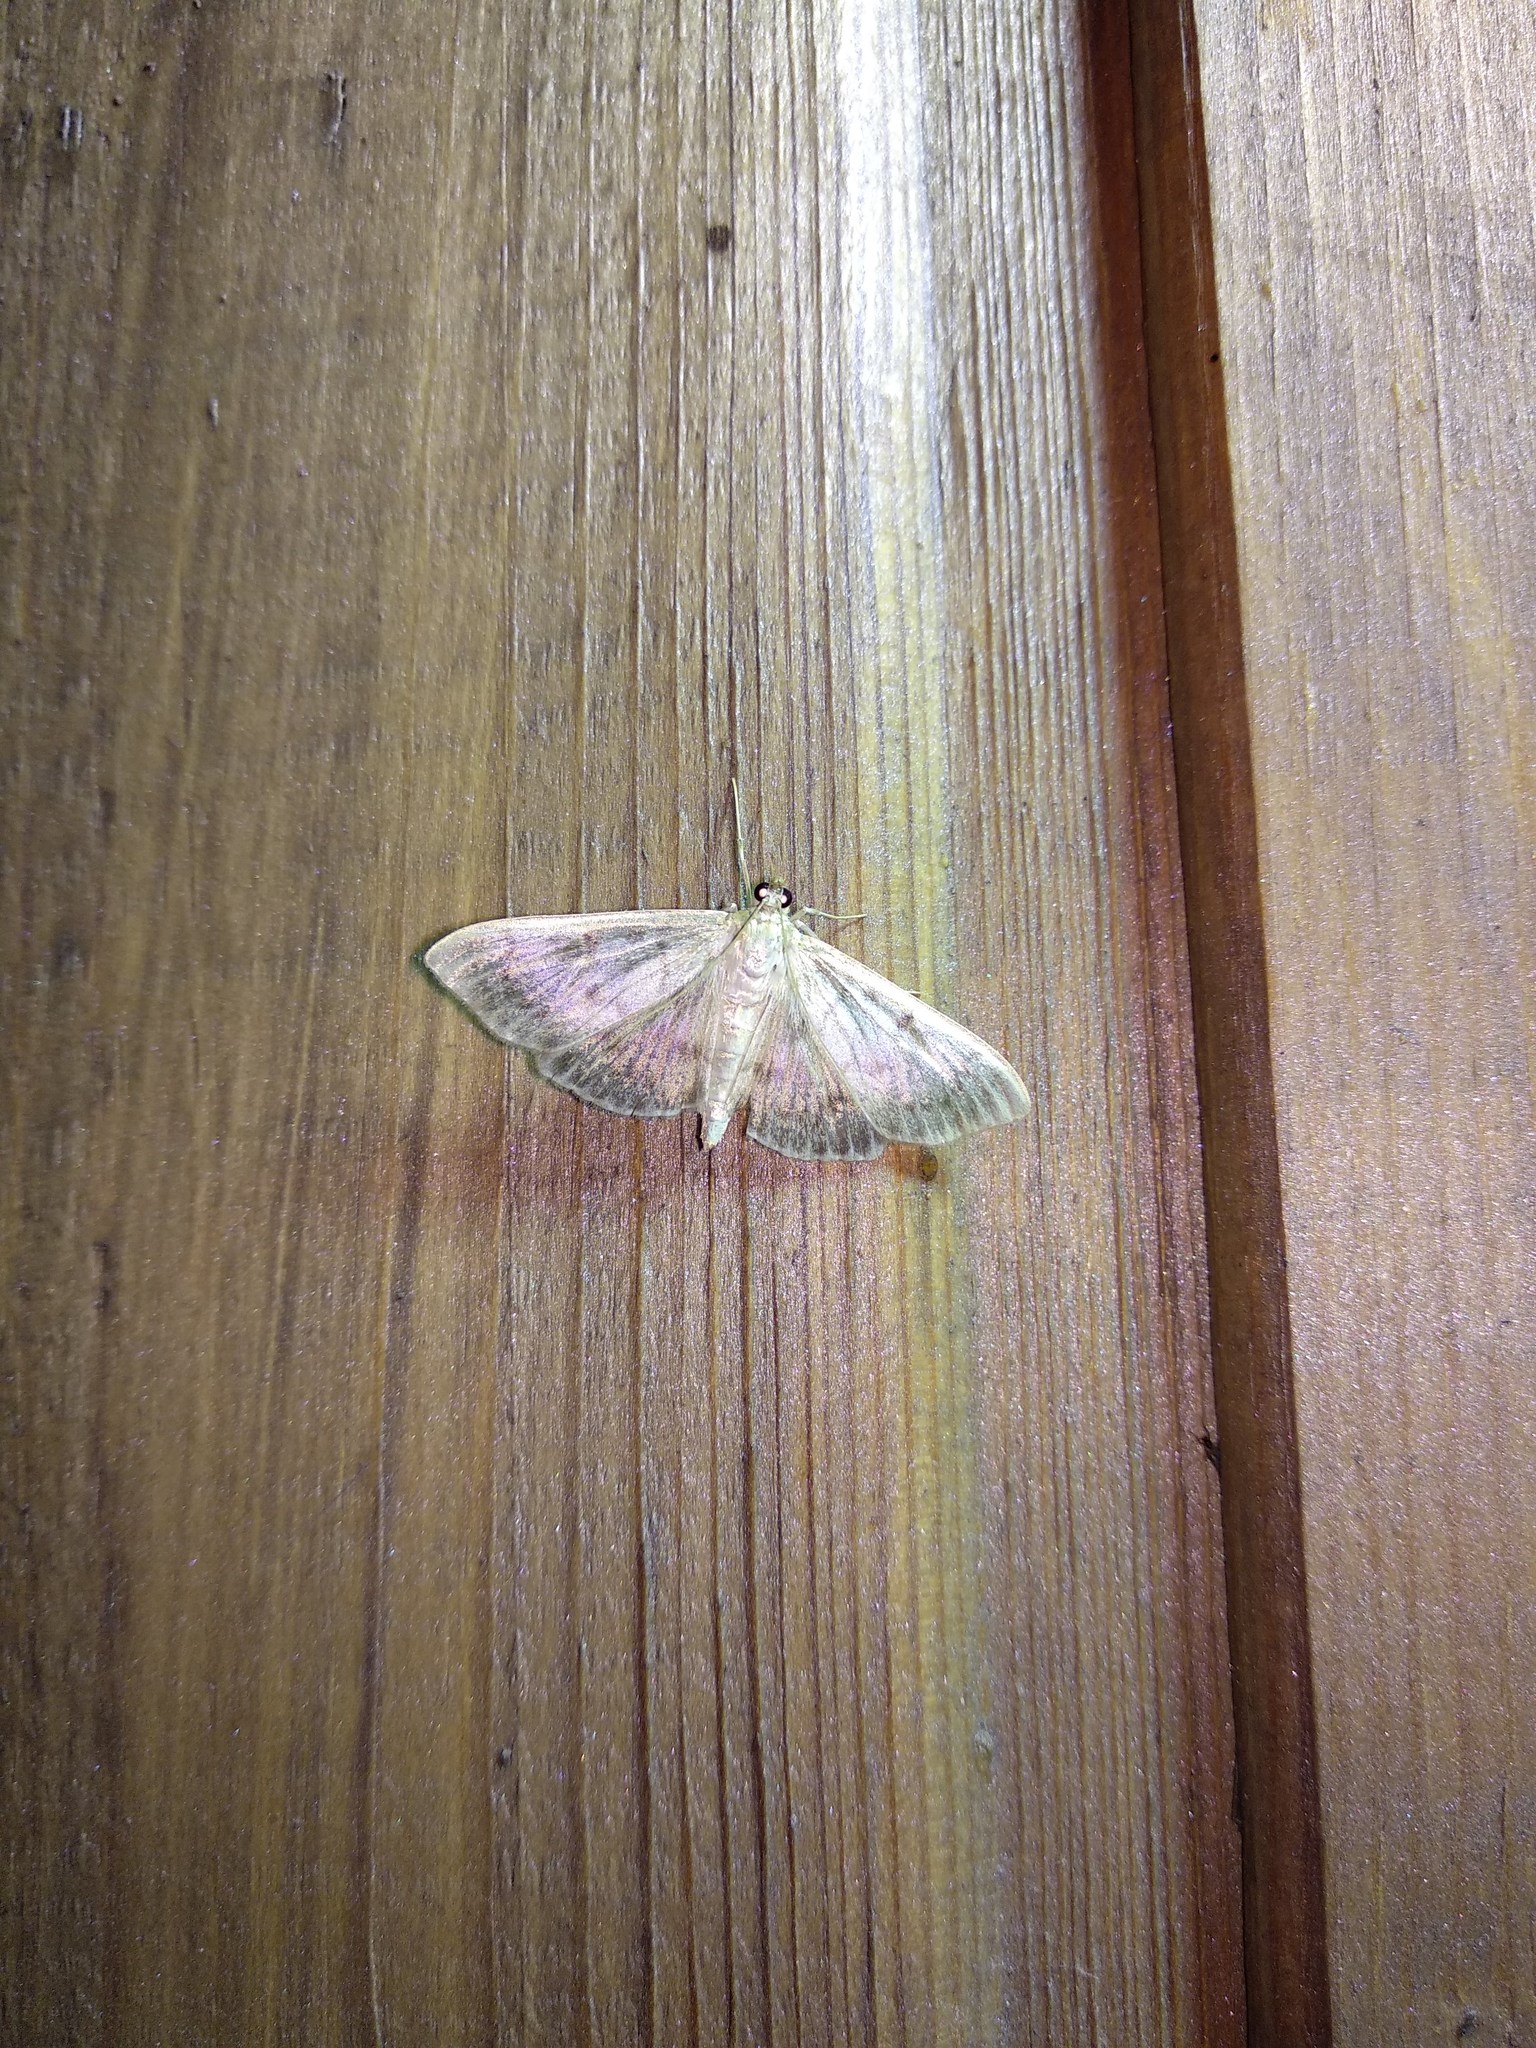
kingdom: Animalia
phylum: Arthropoda
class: Insecta
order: Lepidoptera
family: Crambidae
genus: Patania
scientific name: Patania ruralis
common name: Mother of pearl
